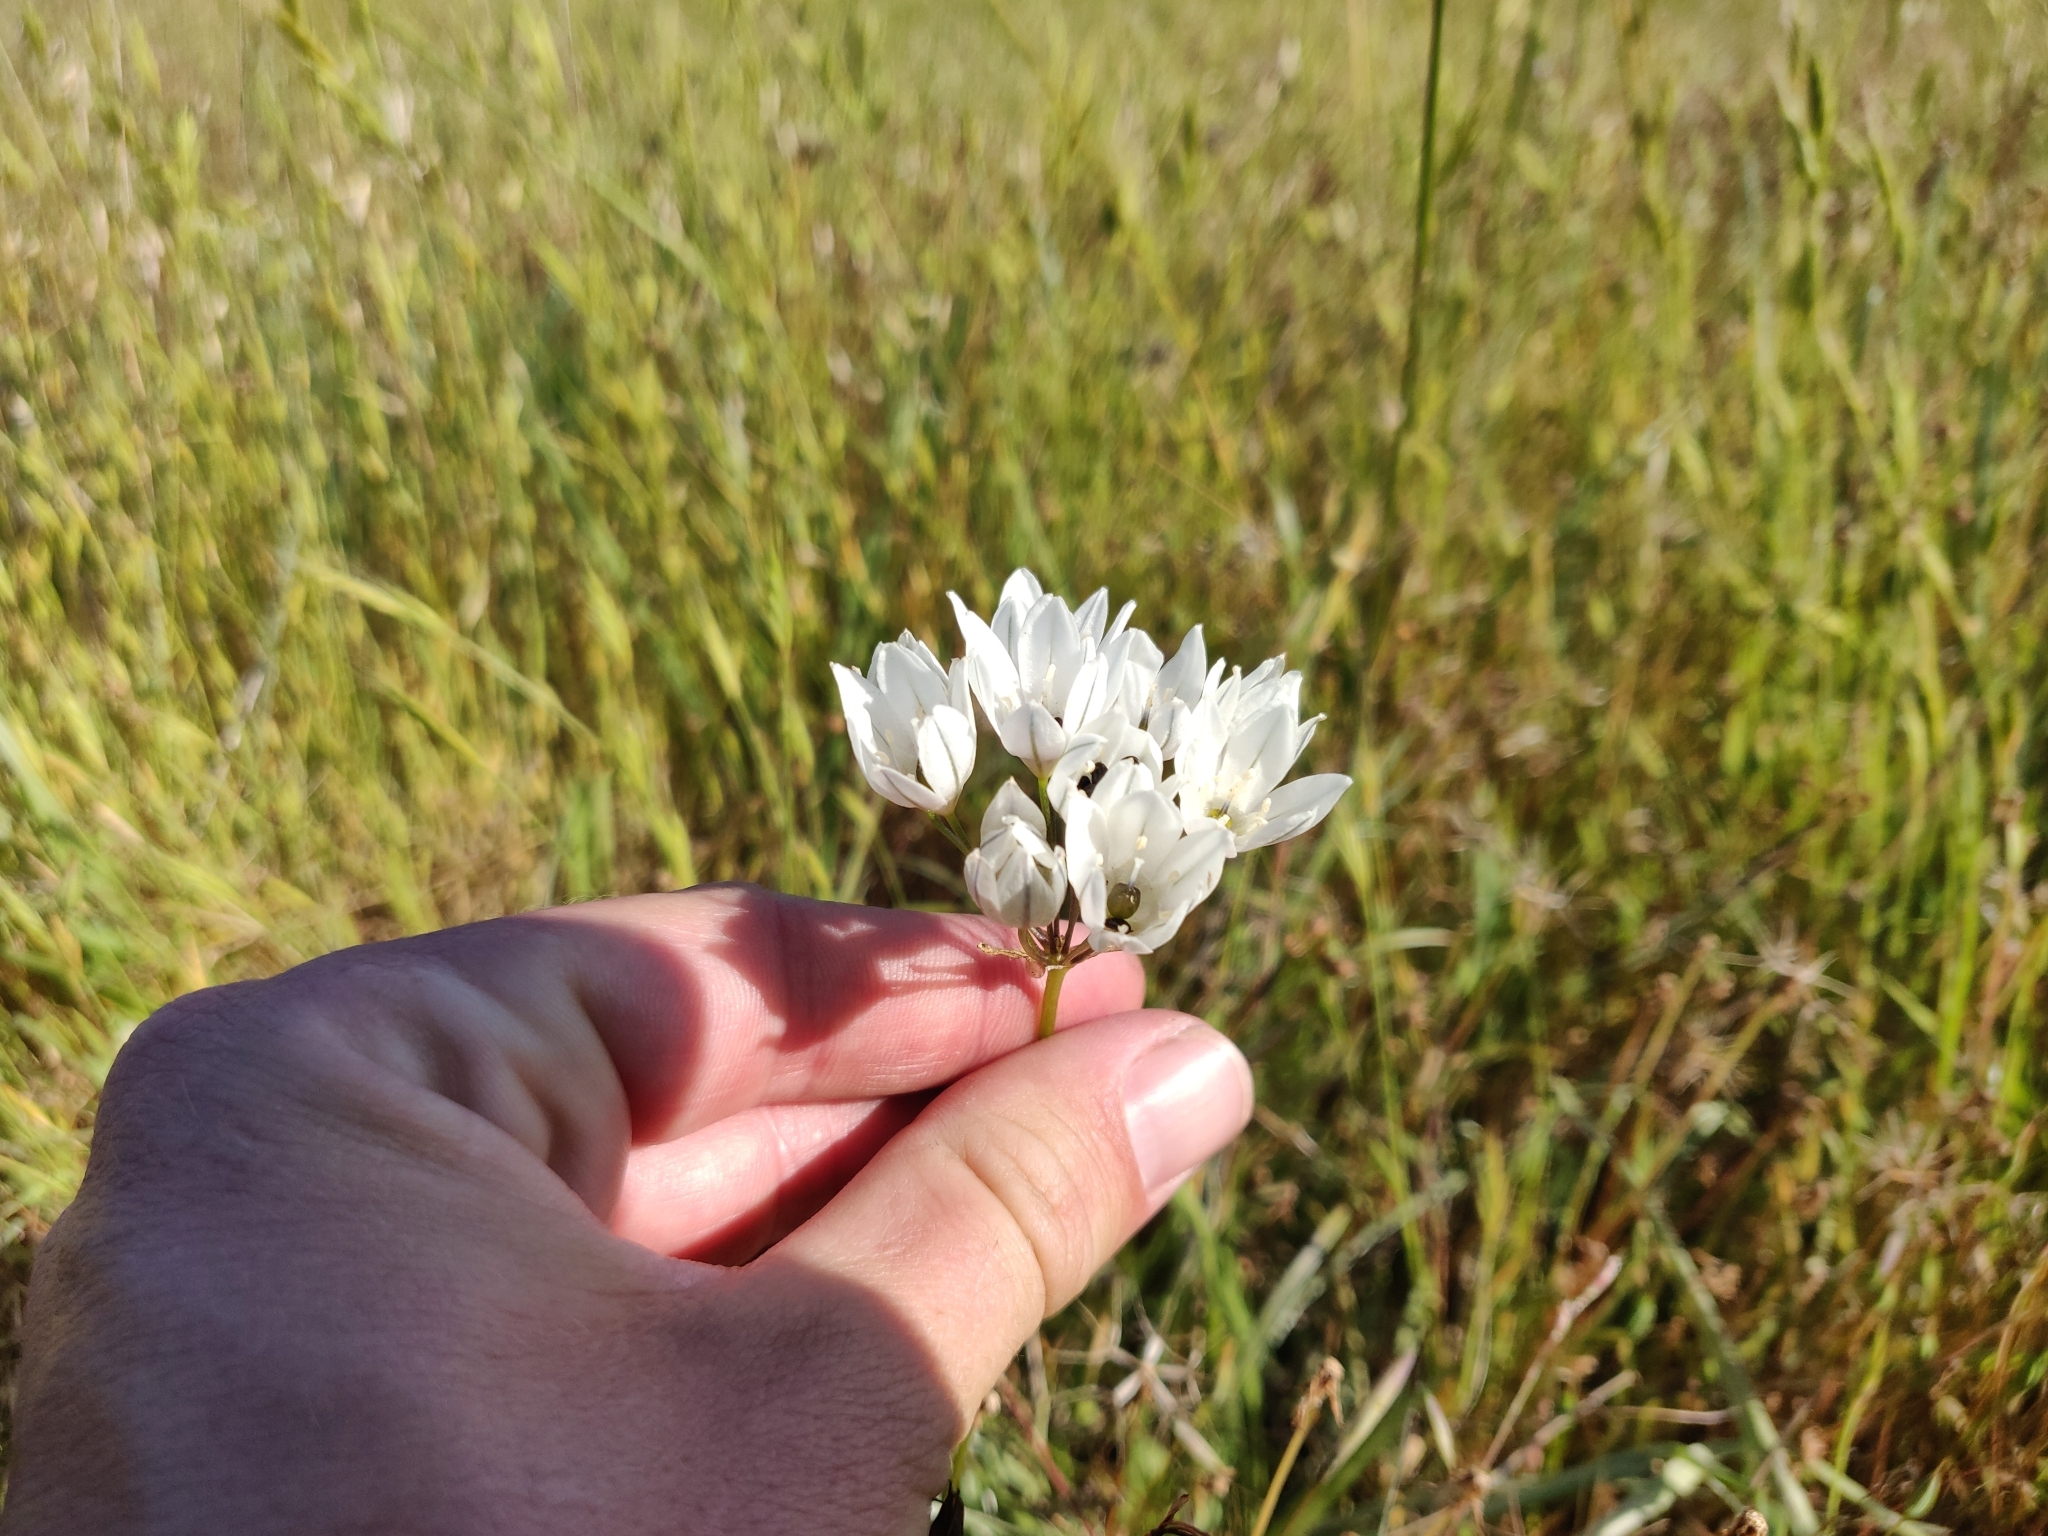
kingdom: Plantae
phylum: Tracheophyta
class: Liliopsida
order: Asparagales
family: Asparagaceae
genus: Triteleia
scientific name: Triteleia hyacinthina
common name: White brodiaea
